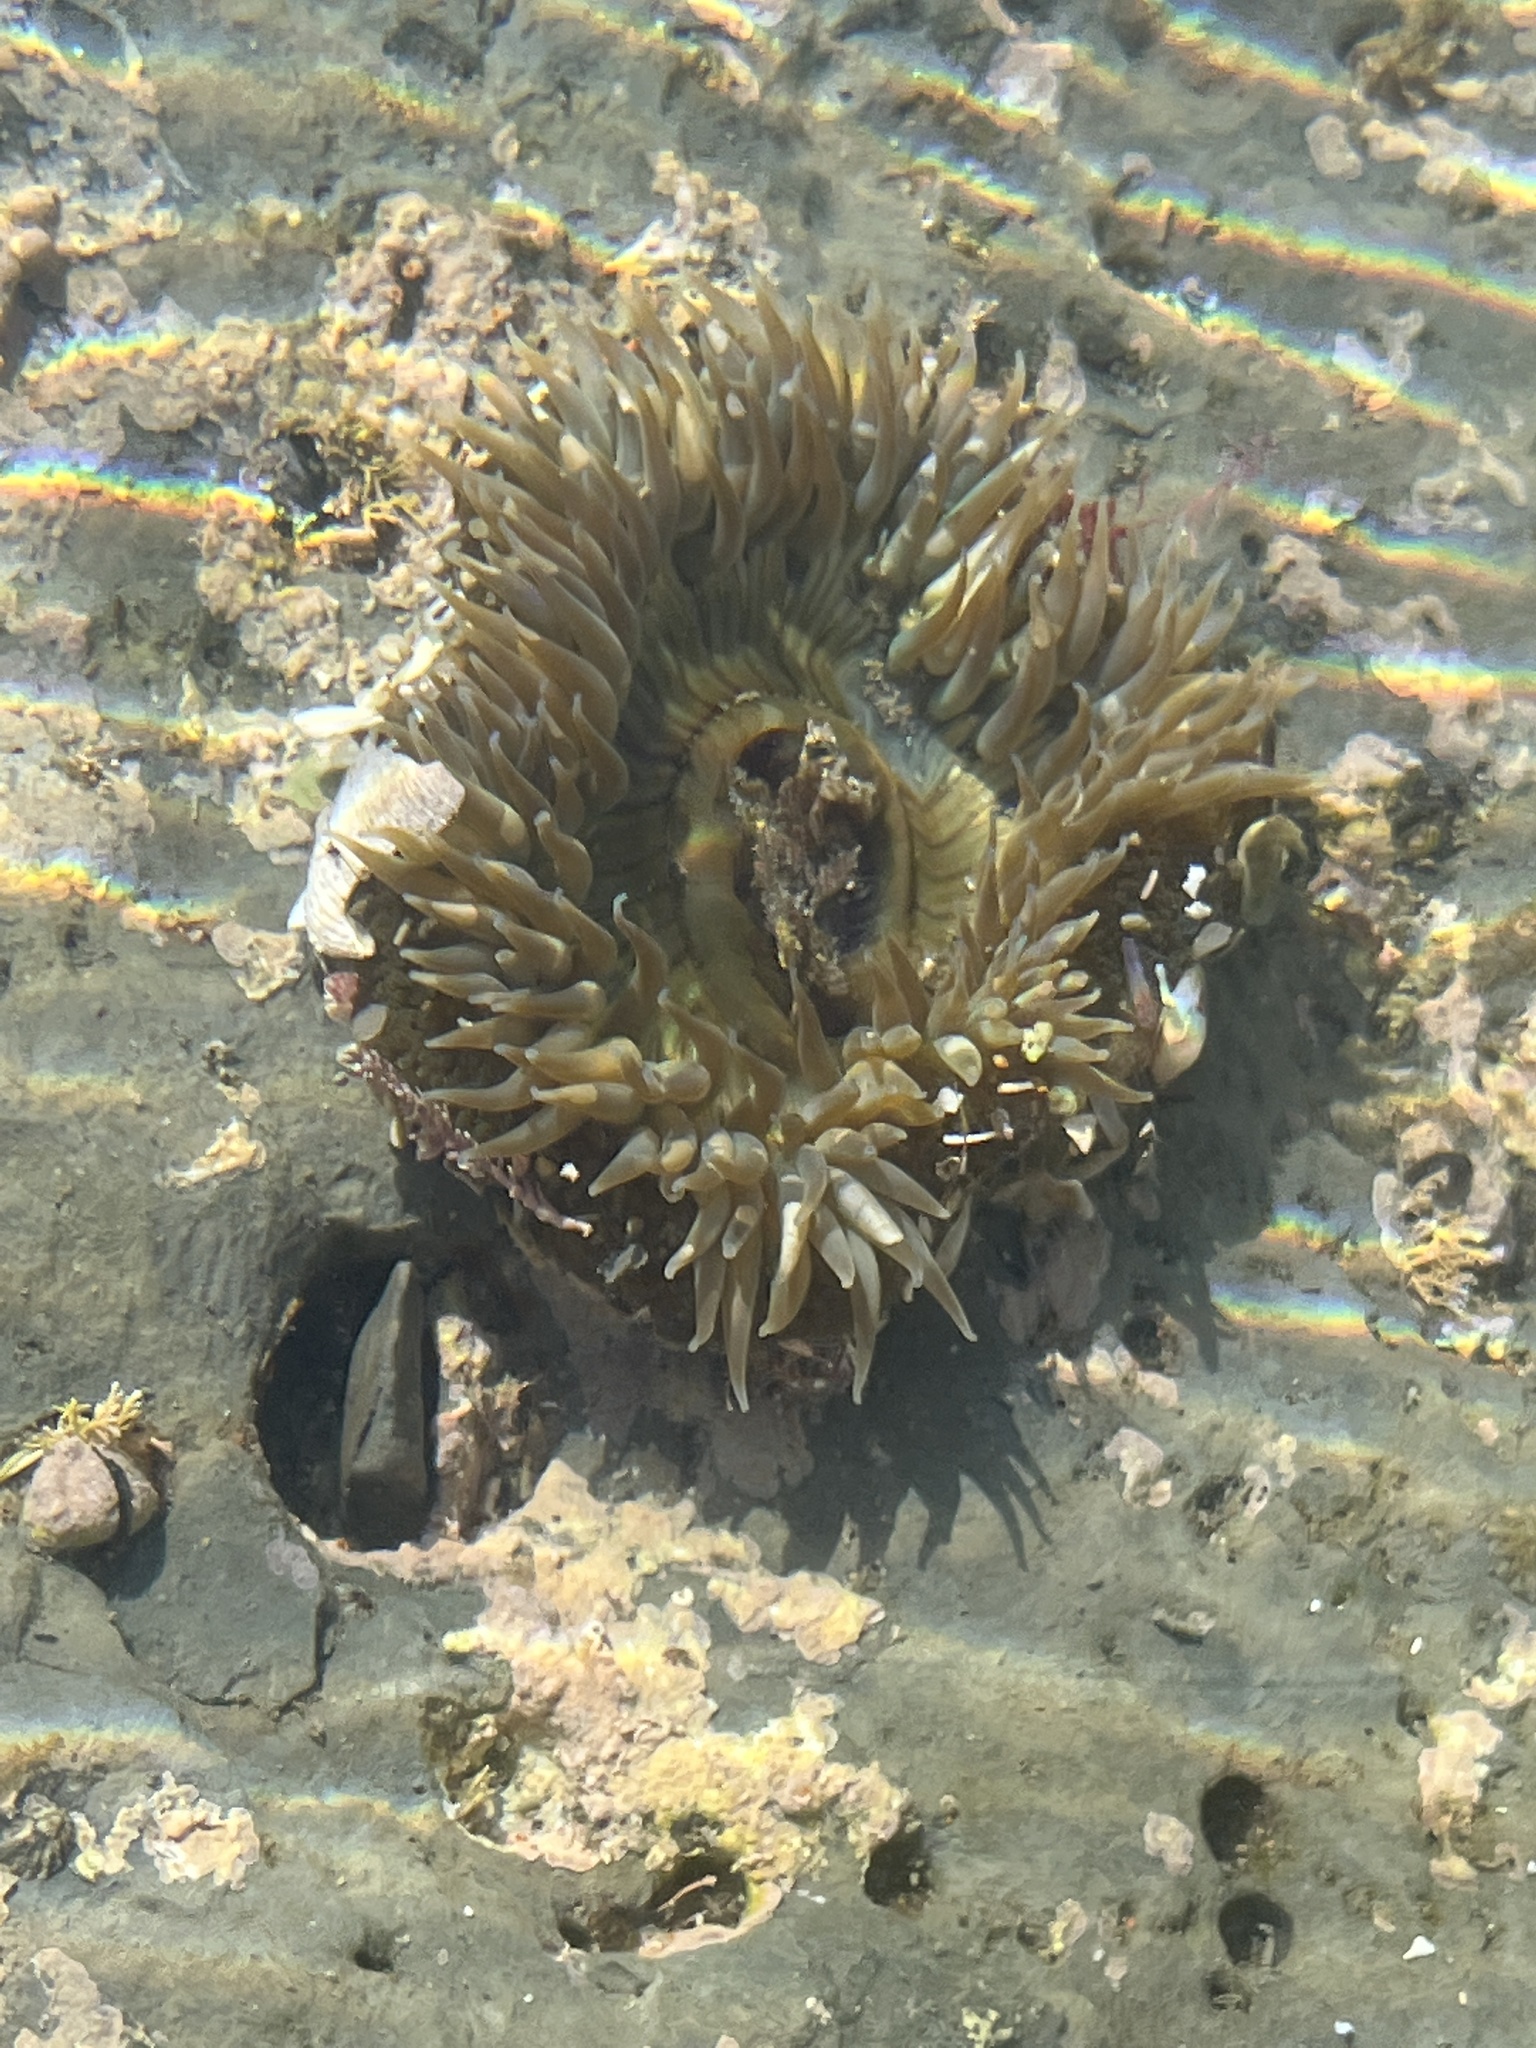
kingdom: Animalia
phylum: Cnidaria
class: Anthozoa
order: Actiniaria
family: Actiniidae
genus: Anthopleura
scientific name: Anthopleura sola
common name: Sun anemone
